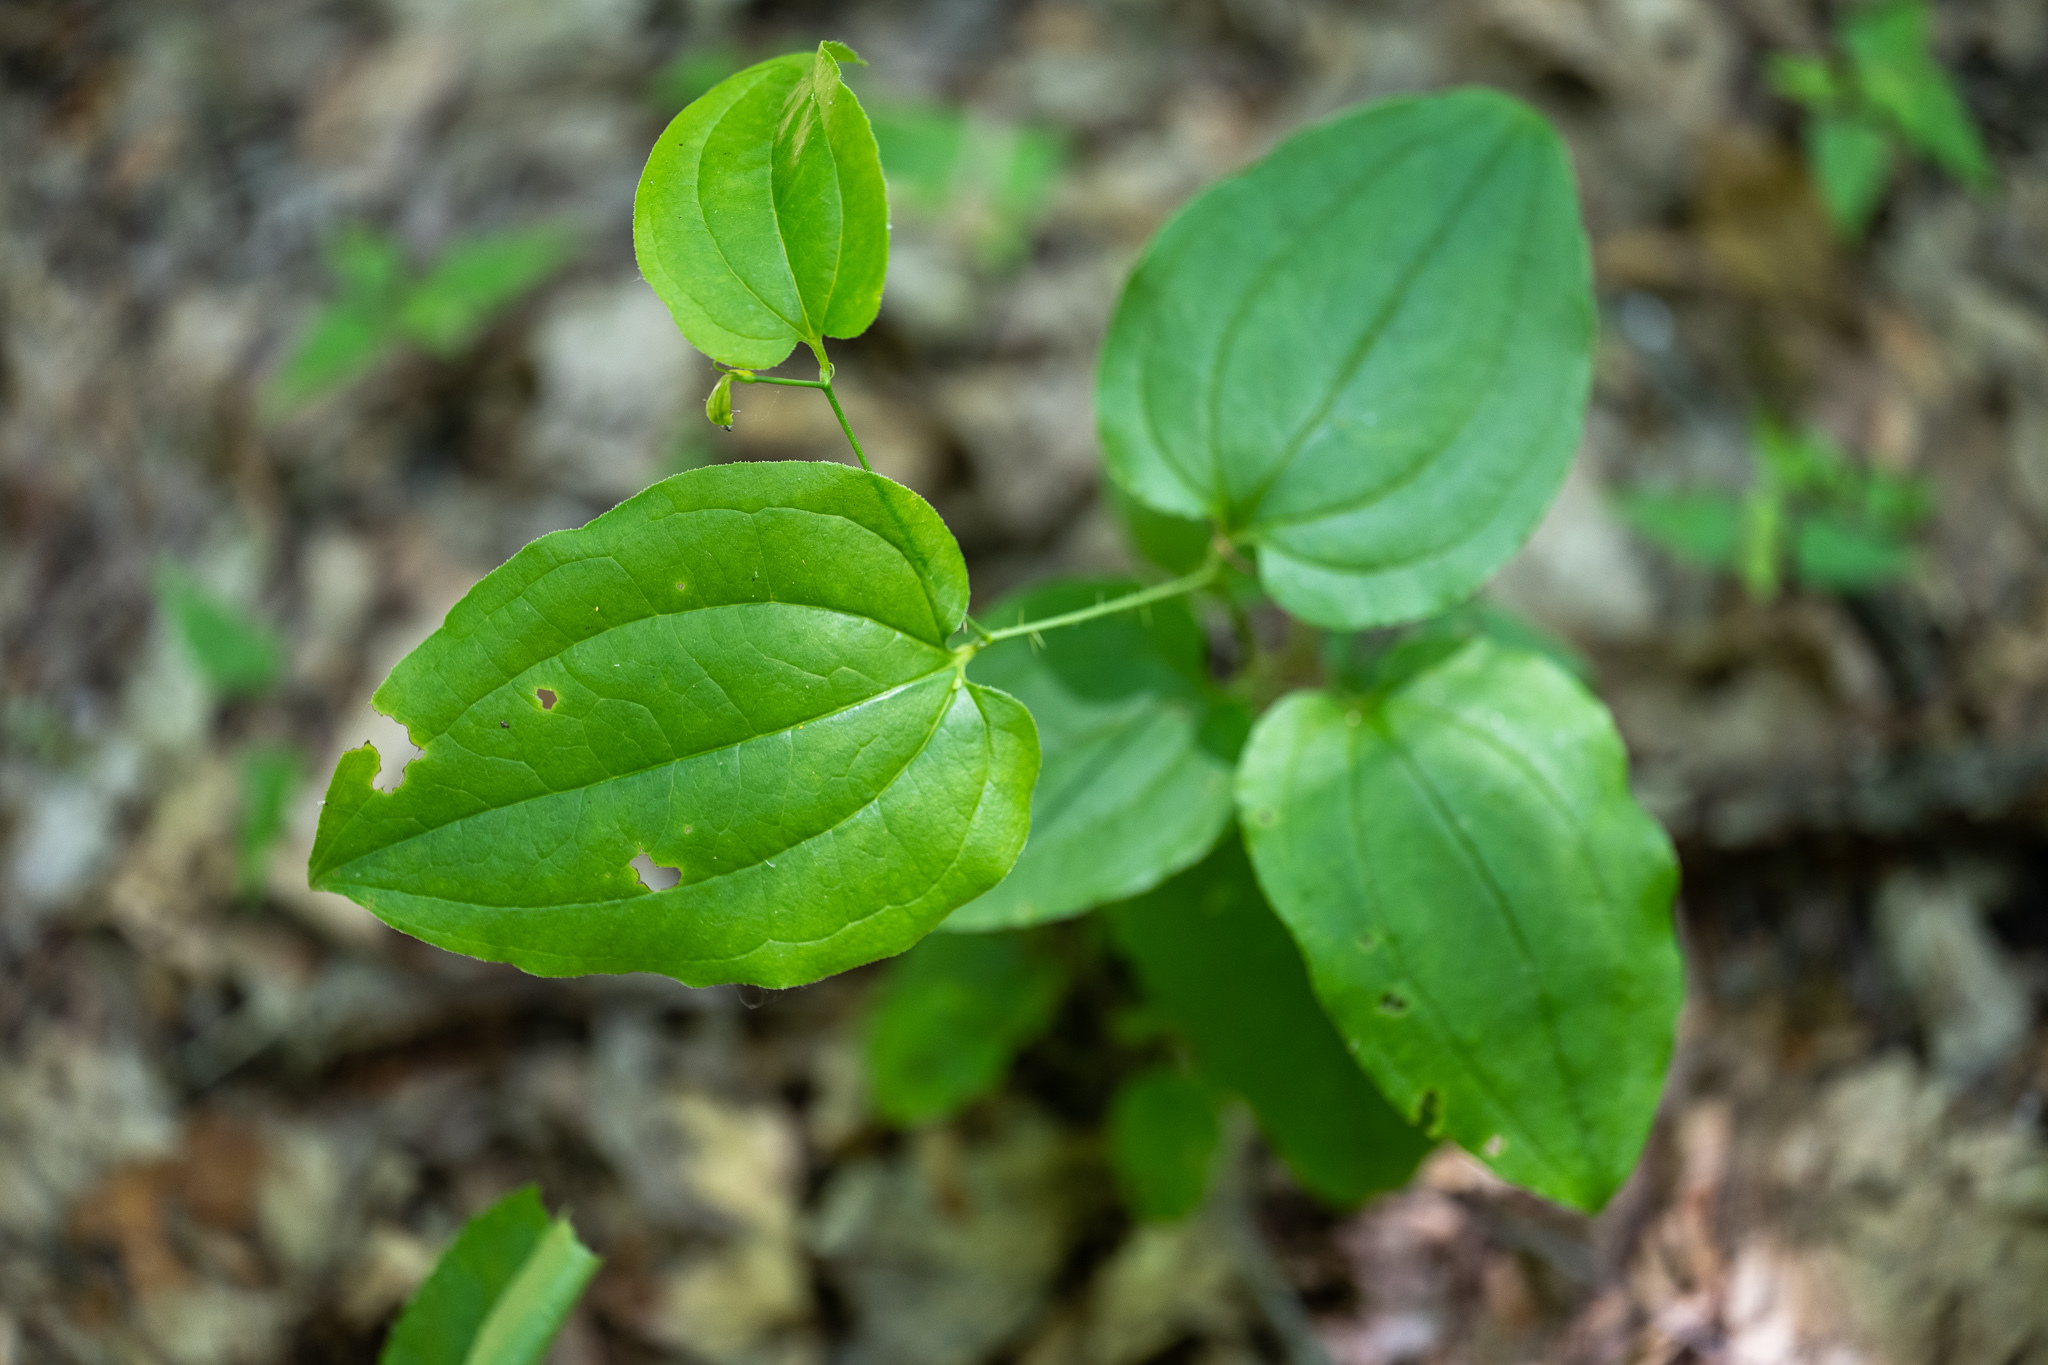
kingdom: Plantae
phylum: Tracheophyta
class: Liliopsida
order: Liliales
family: Smilacaceae
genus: Smilax
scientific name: Smilax tamnoides
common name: Hellfetter
